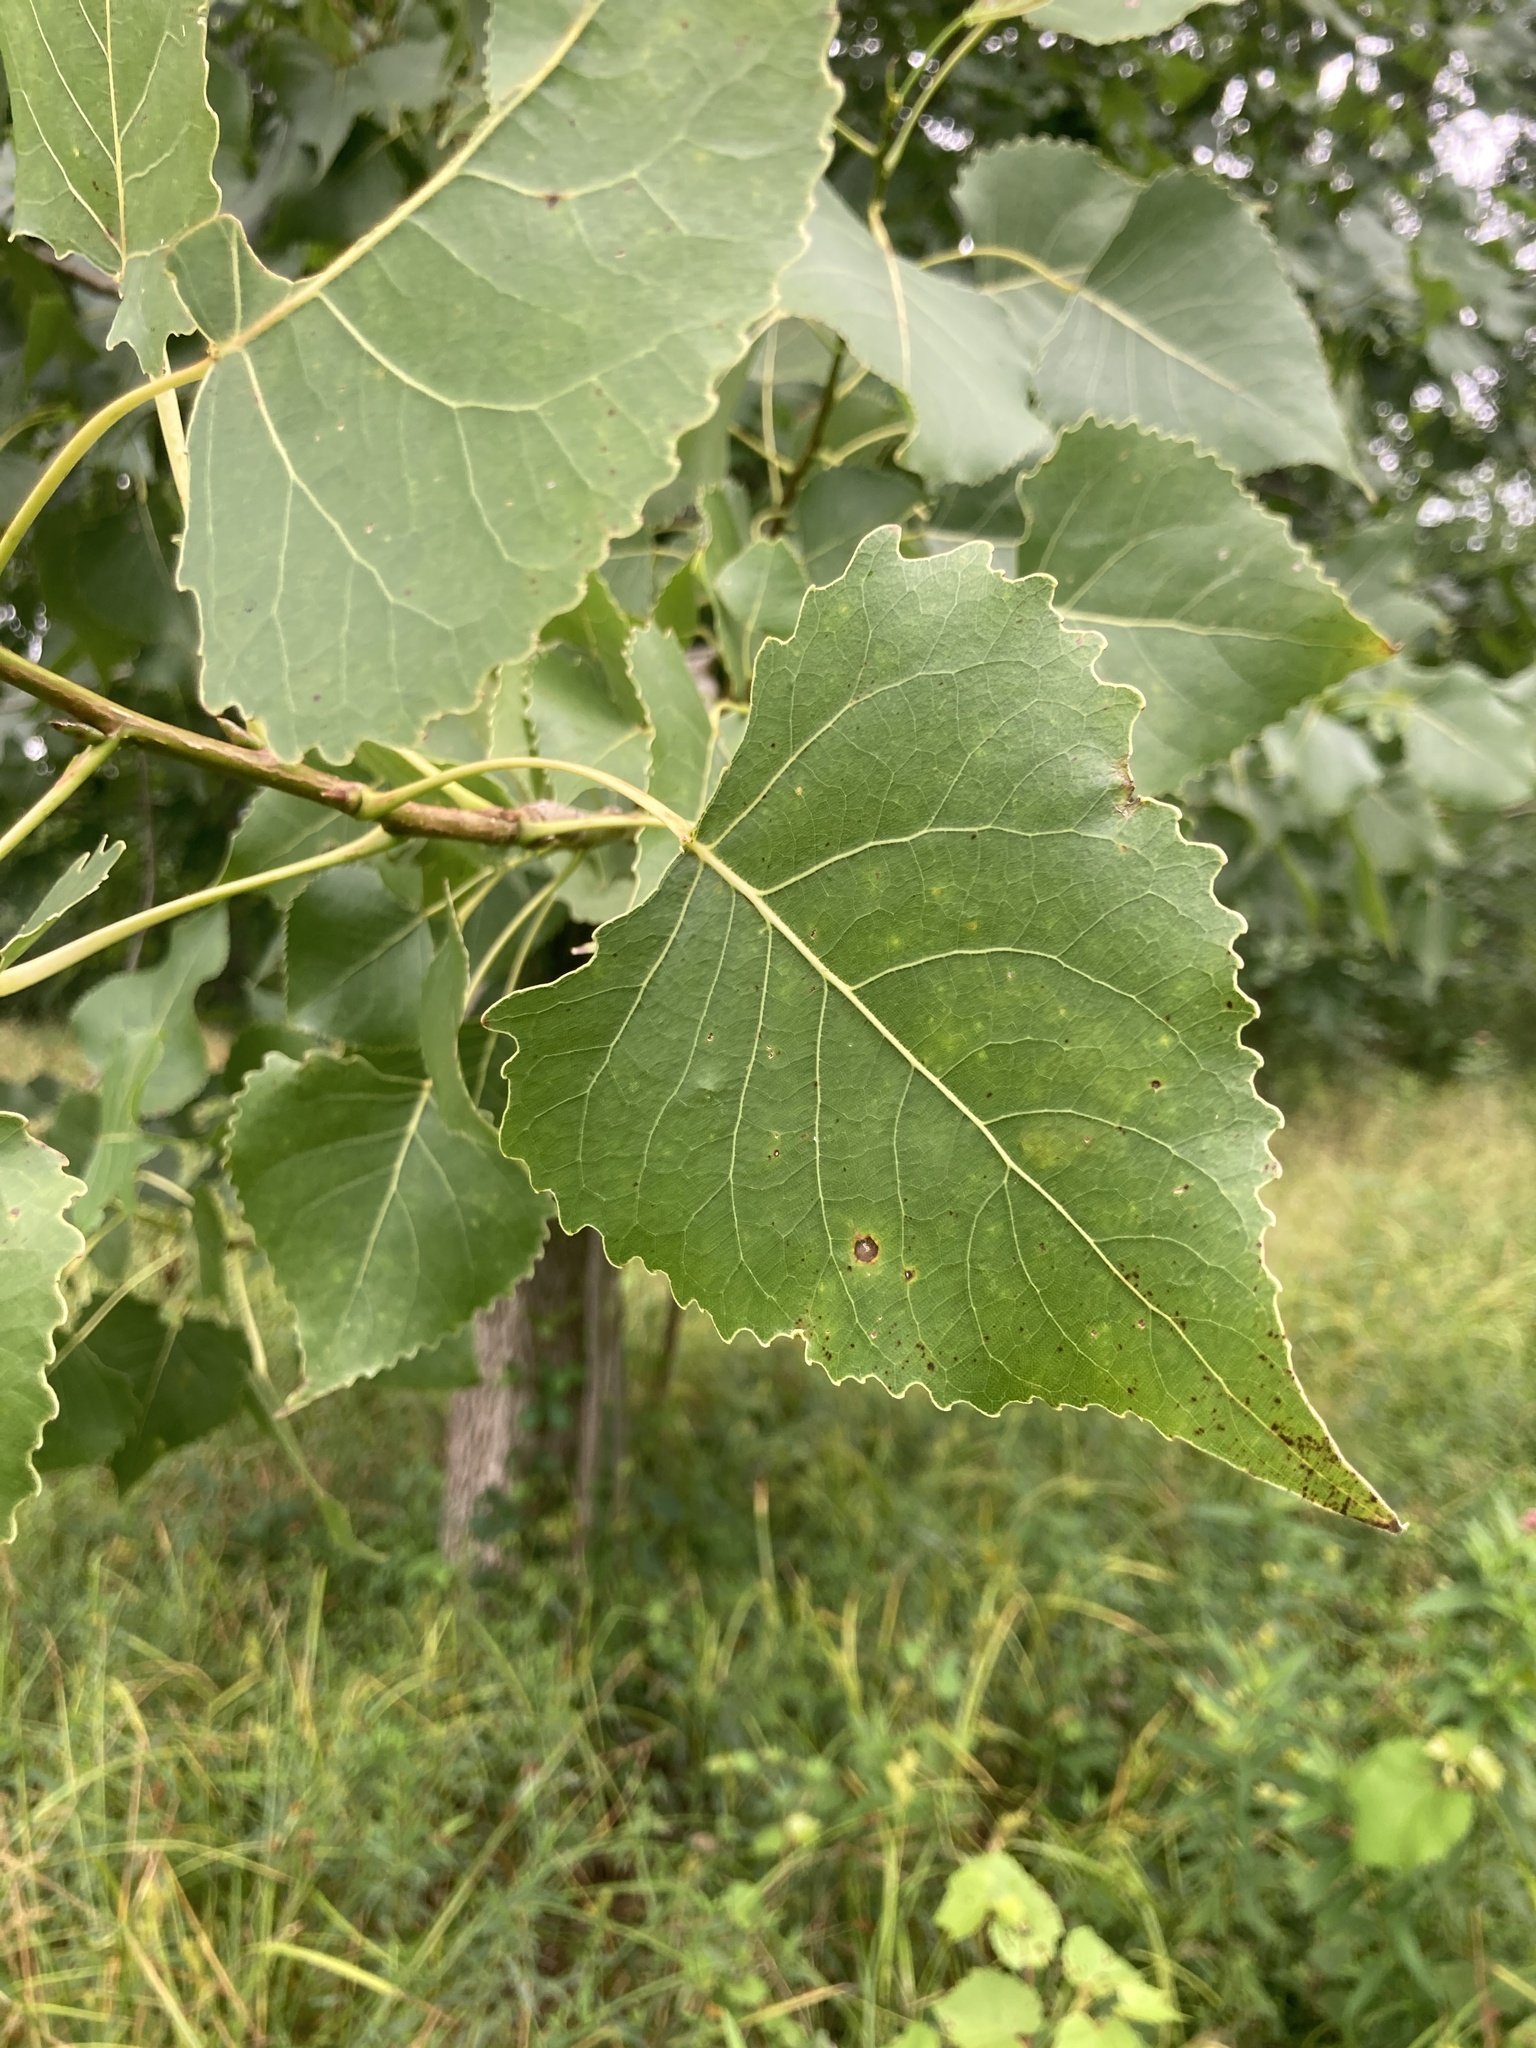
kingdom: Plantae
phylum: Tracheophyta
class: Magnoliopsida
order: Malpighiales
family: Salicaceae
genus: Populus
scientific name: Populus deltoides
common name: Eastern cottonwood
